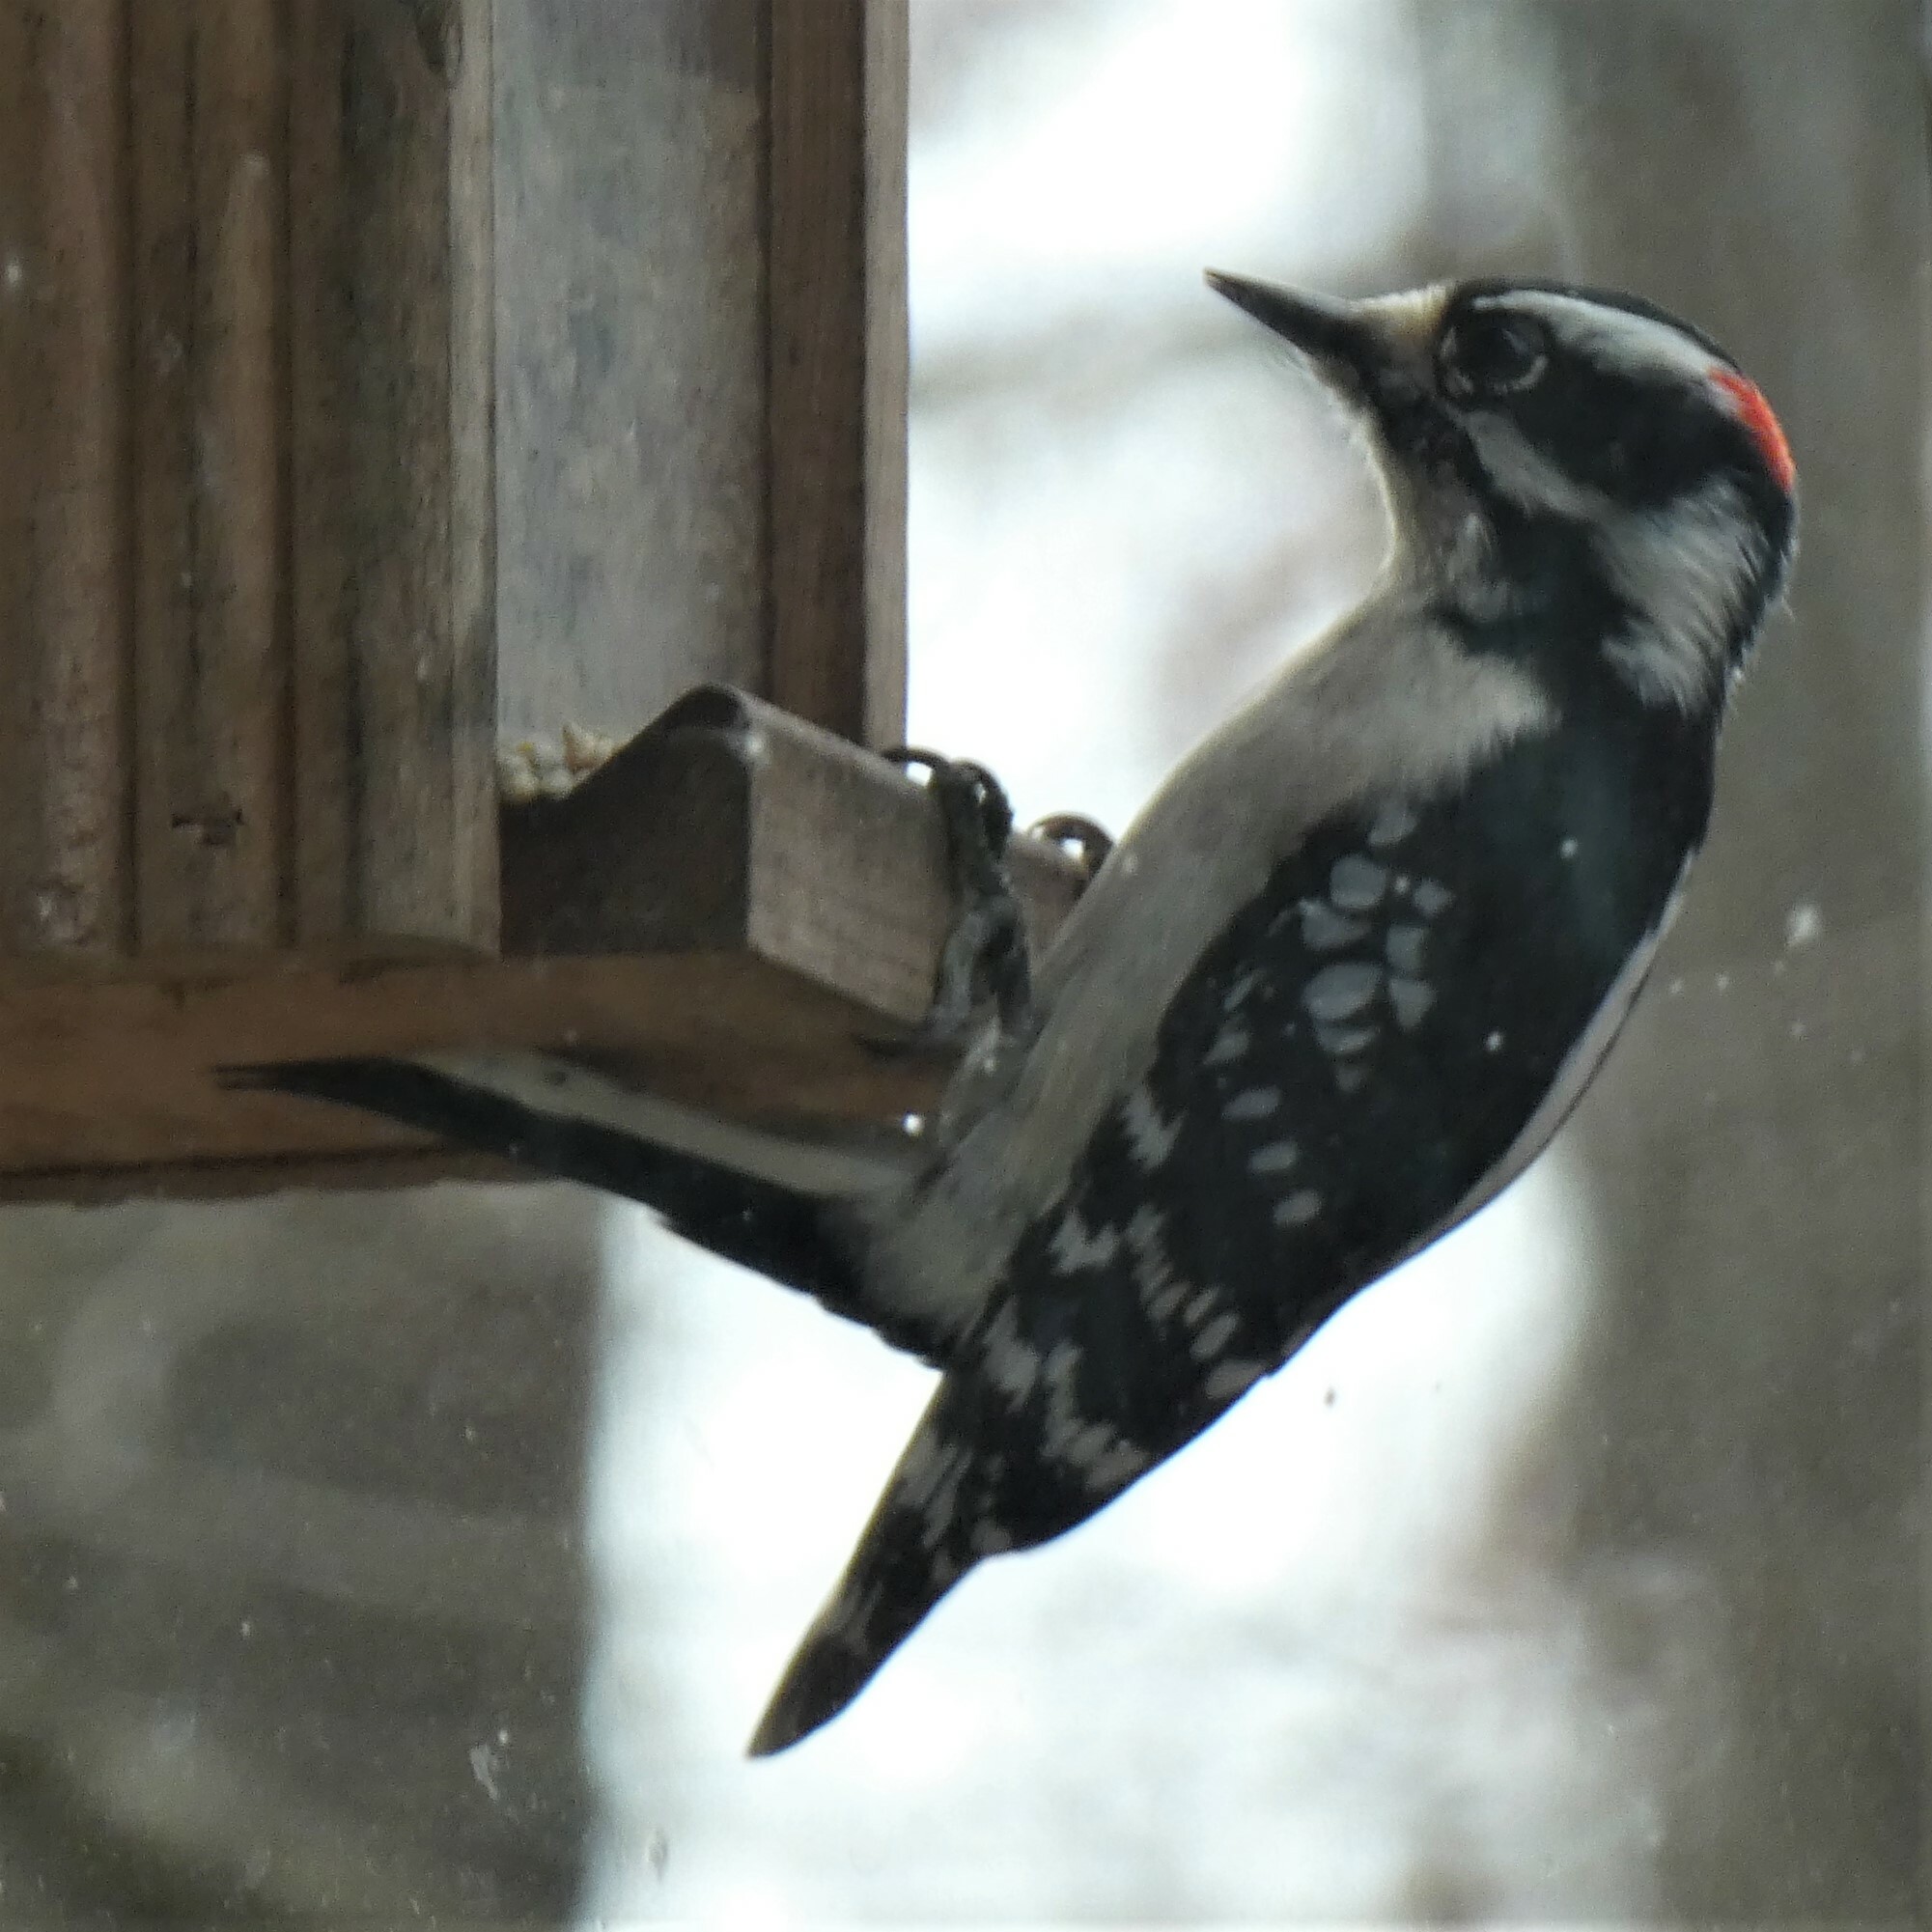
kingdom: Animalia
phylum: Chordata
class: Aves
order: Piciformes
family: Picidae
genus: Dryobates
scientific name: Dryobates pubescens
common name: Downy woodpecker
